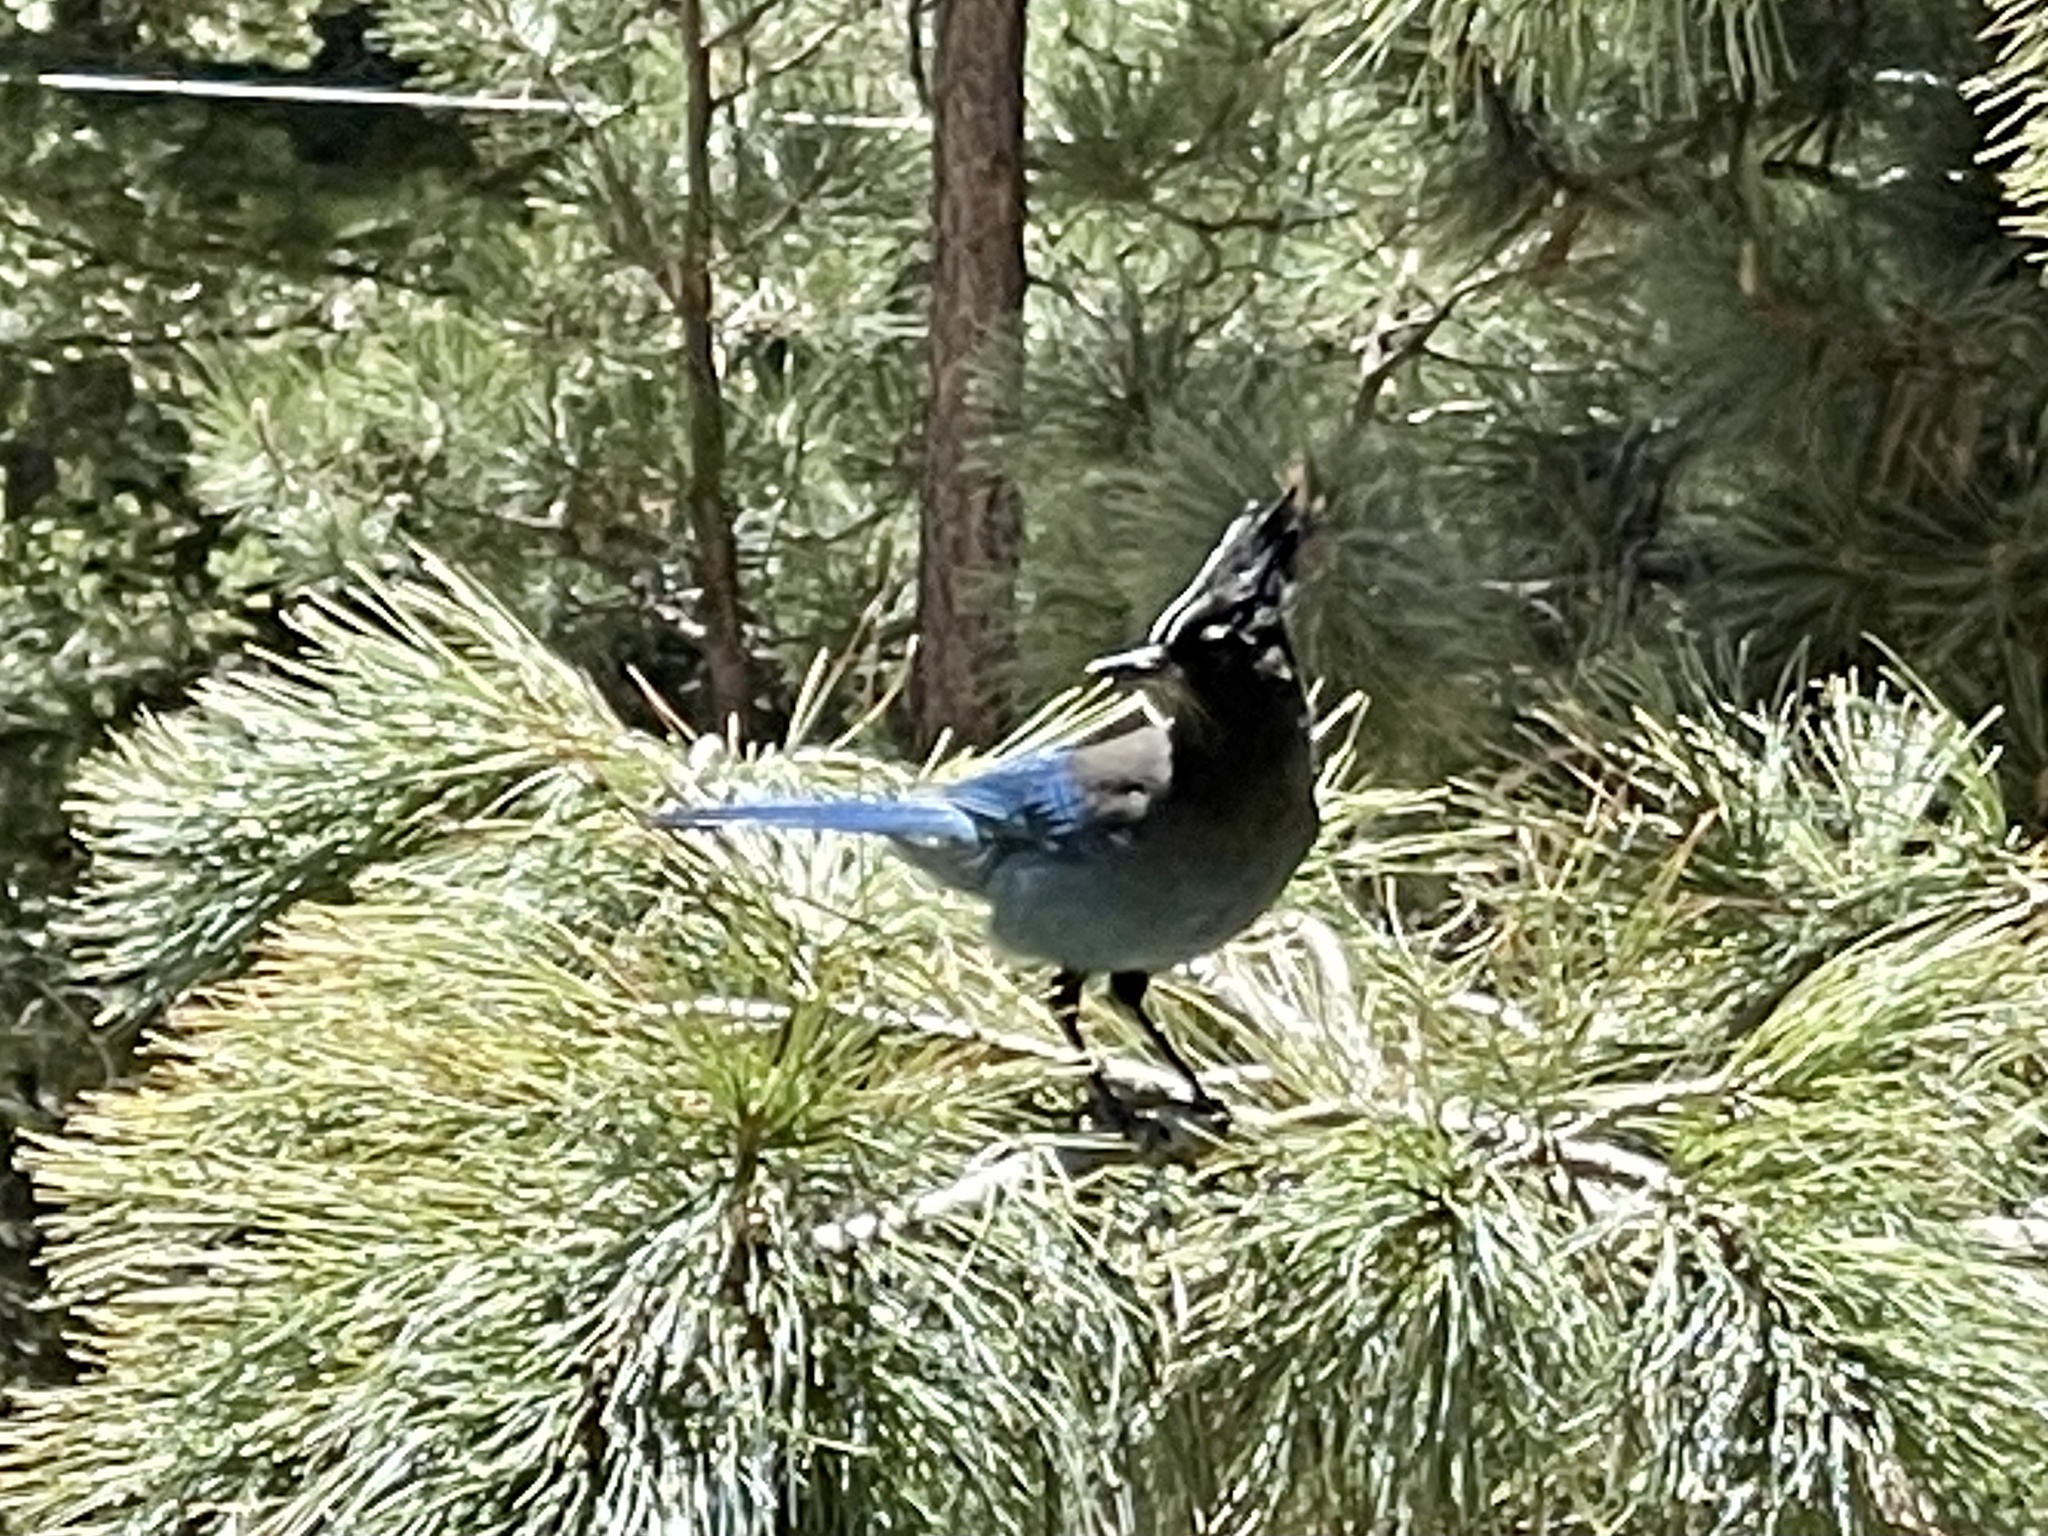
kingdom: Animalia
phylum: Chordata
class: Aves
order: Passeriformes
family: Corvidae
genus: Cyanocitta
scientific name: Cyanocitta stelleri
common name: Steller's jay
